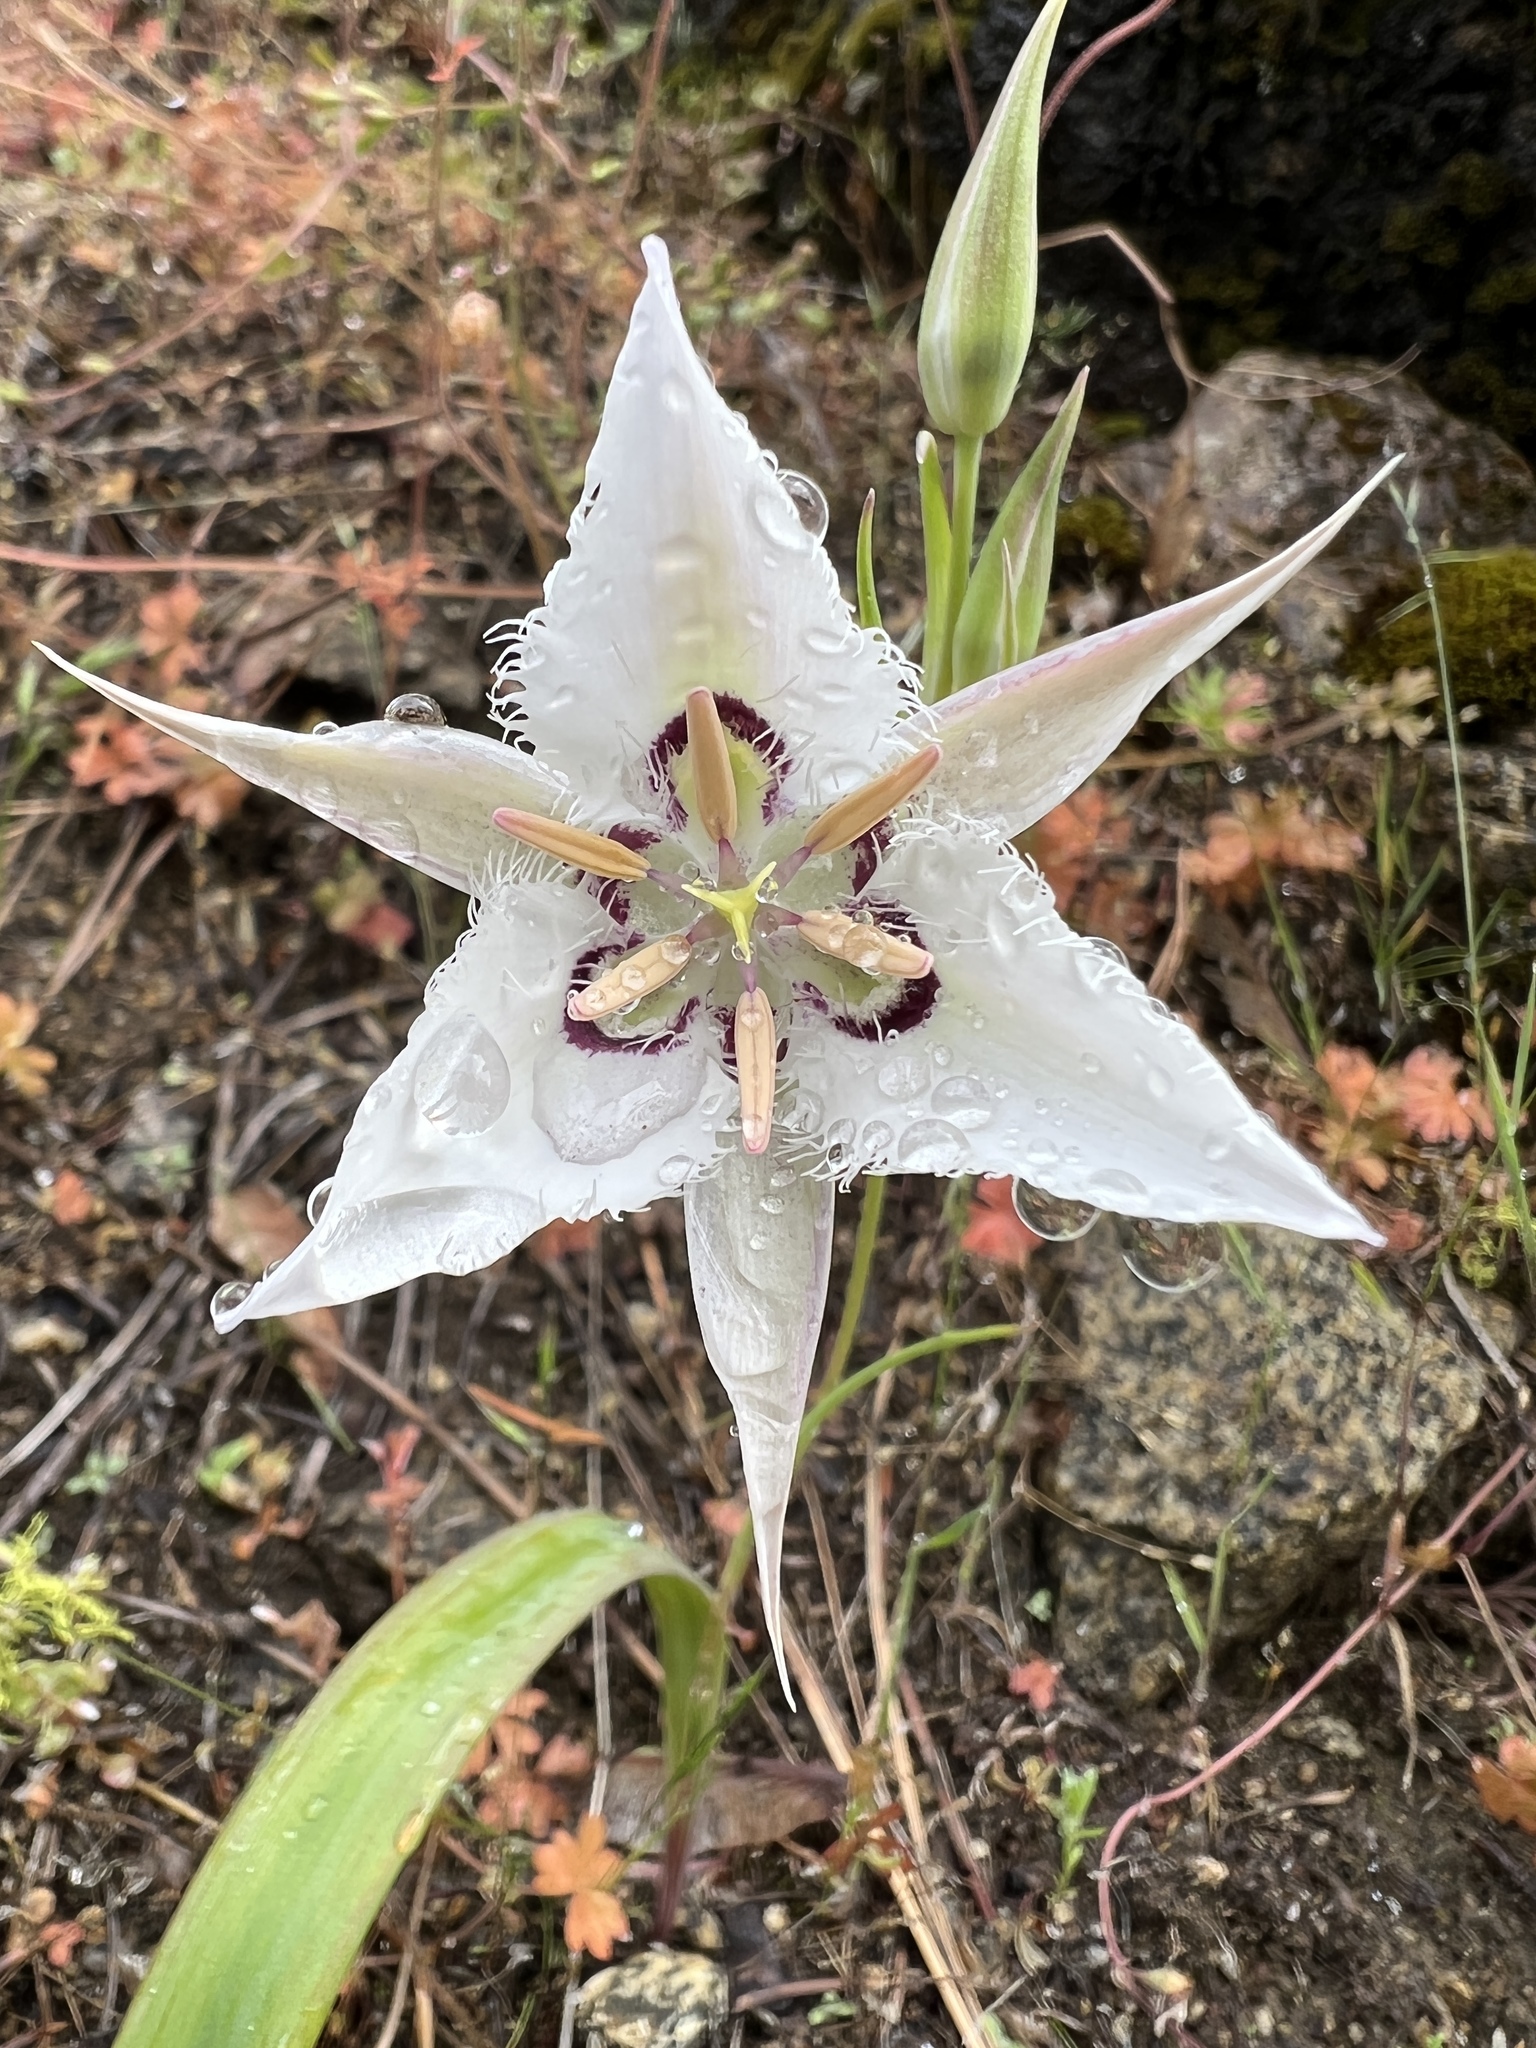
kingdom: Plantae
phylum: Tracheophyta
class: Liliopsida
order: Liliales
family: Liliaceae
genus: Calochortus
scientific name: Calochortus lyallii
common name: Lyall's mariposa lily
